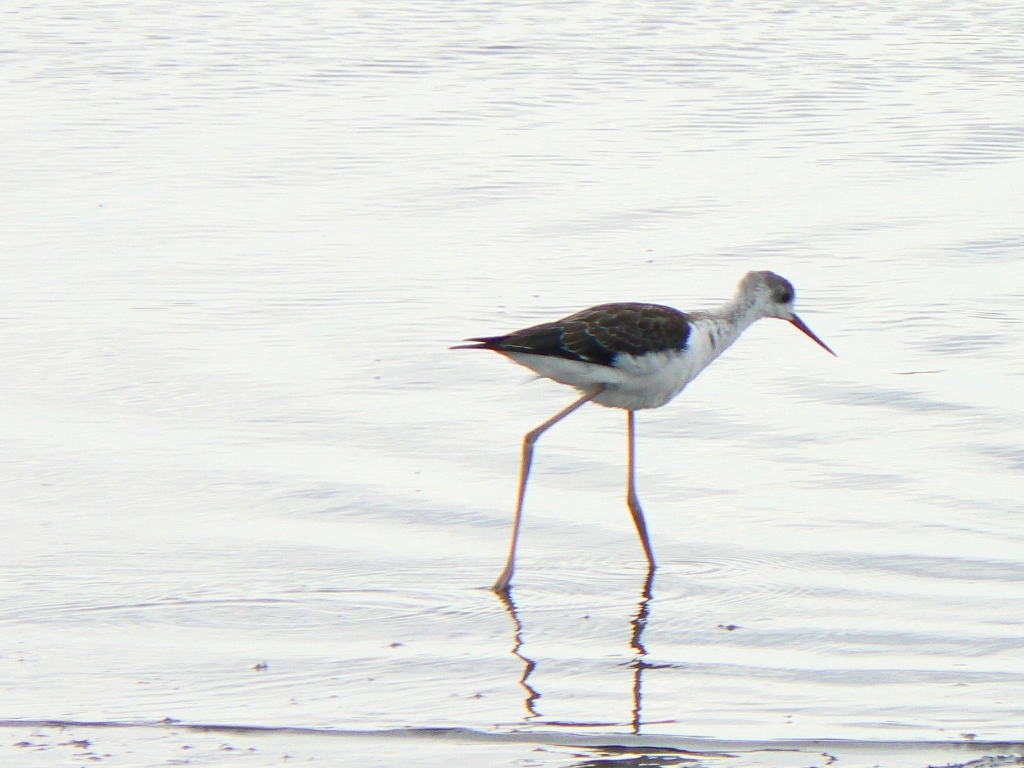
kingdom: Animalia
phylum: Chordata
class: Aves
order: Charadriiformes
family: Recurvirostridae
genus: Himantopus
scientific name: Himantopus himantopus
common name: Black-winged stilt
